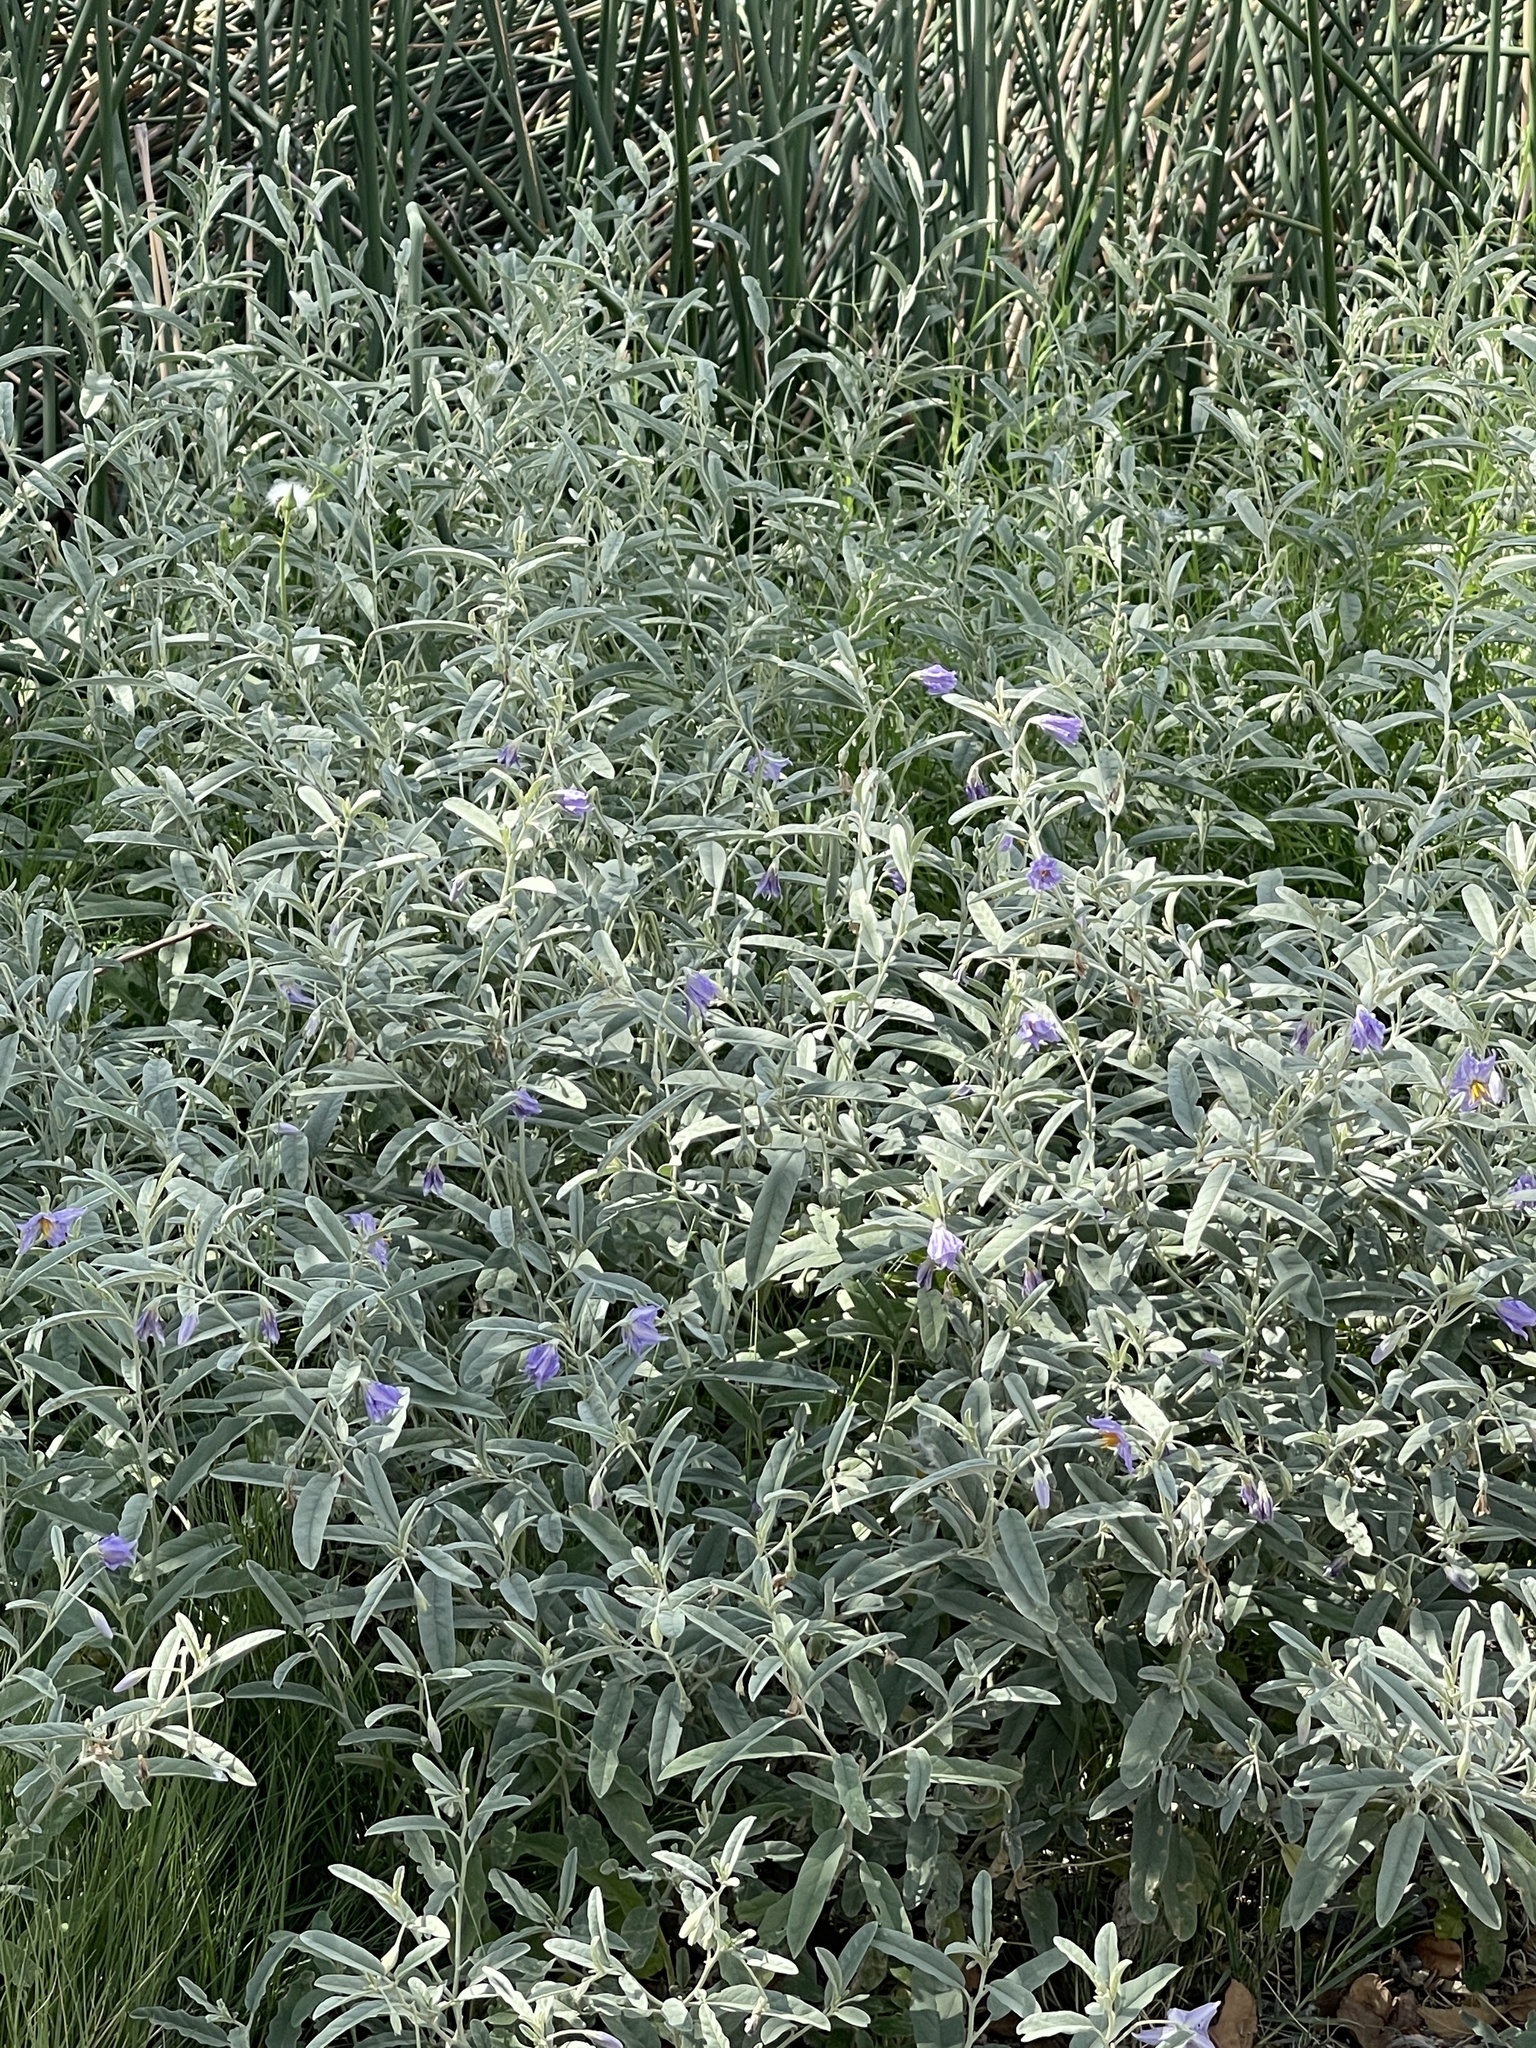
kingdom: Plantae
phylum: Tracheophyta
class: Magnoliopsida
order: Solanales
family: Solanaceae
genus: Solanum
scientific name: Solanum elaeagnifolium
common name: Silverleaf nightshade
